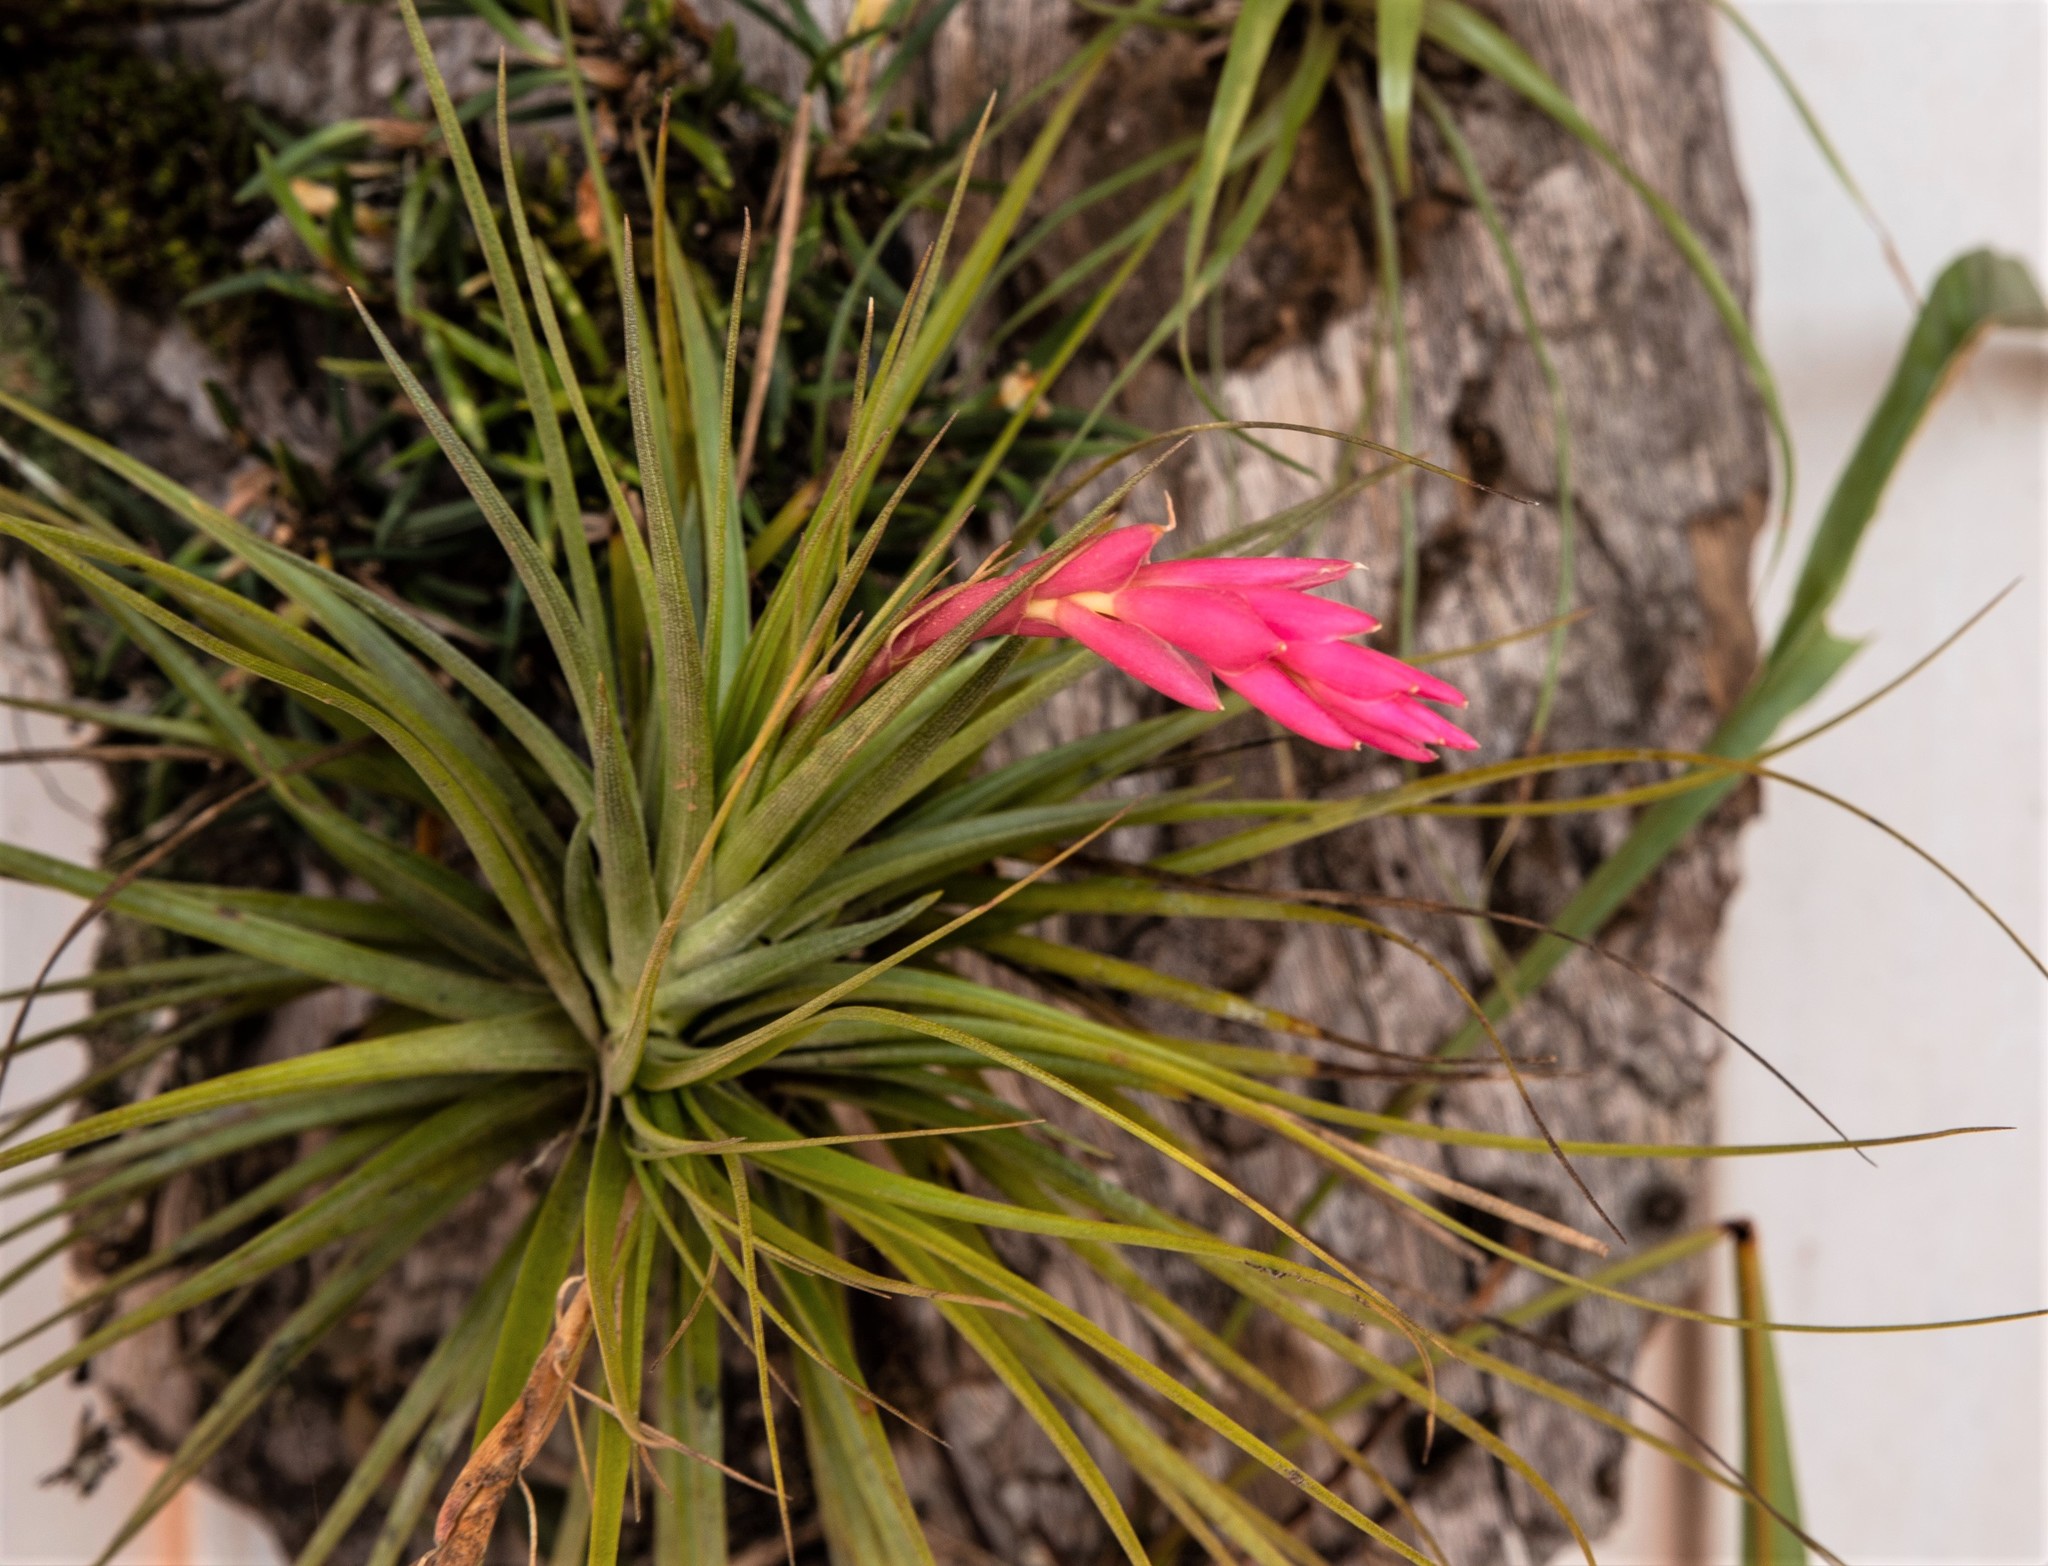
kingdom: Plantae
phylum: Tracheophyta
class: Liliopsida
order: Poales
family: Bromeliaceae
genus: Tillandsia
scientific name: Tillandsia tenuifolia
